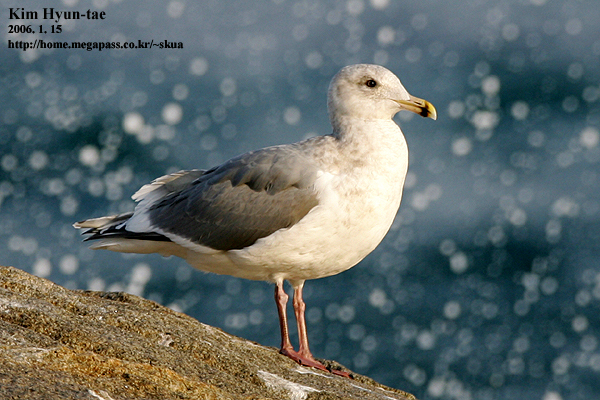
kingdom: Animalia
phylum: Chordata
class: Aves
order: Charadriiformes
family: Laridae
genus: Larus
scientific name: Larus
